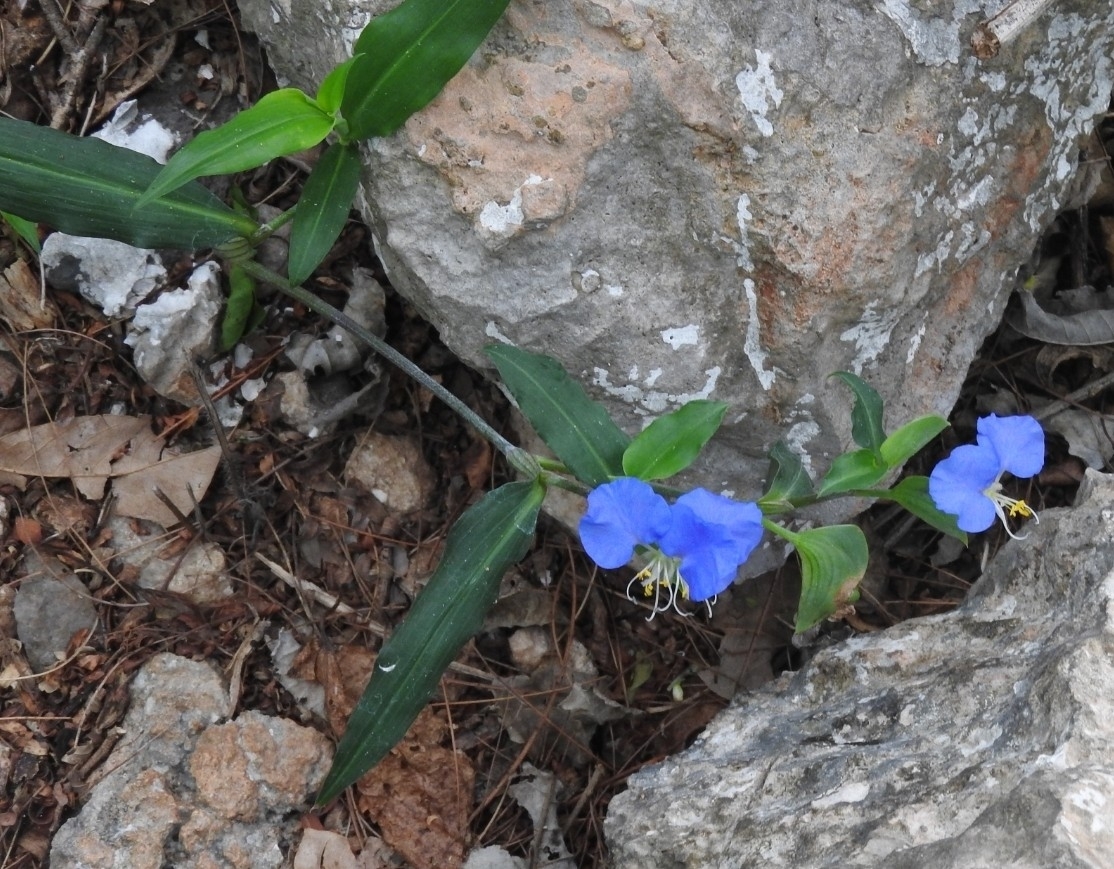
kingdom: Plantae
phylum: Tracheophyta
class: Liliopsida
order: Commelinales
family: Commelinaceae
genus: Commelina
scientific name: Commelina erecta
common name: Blousel blommetjie
